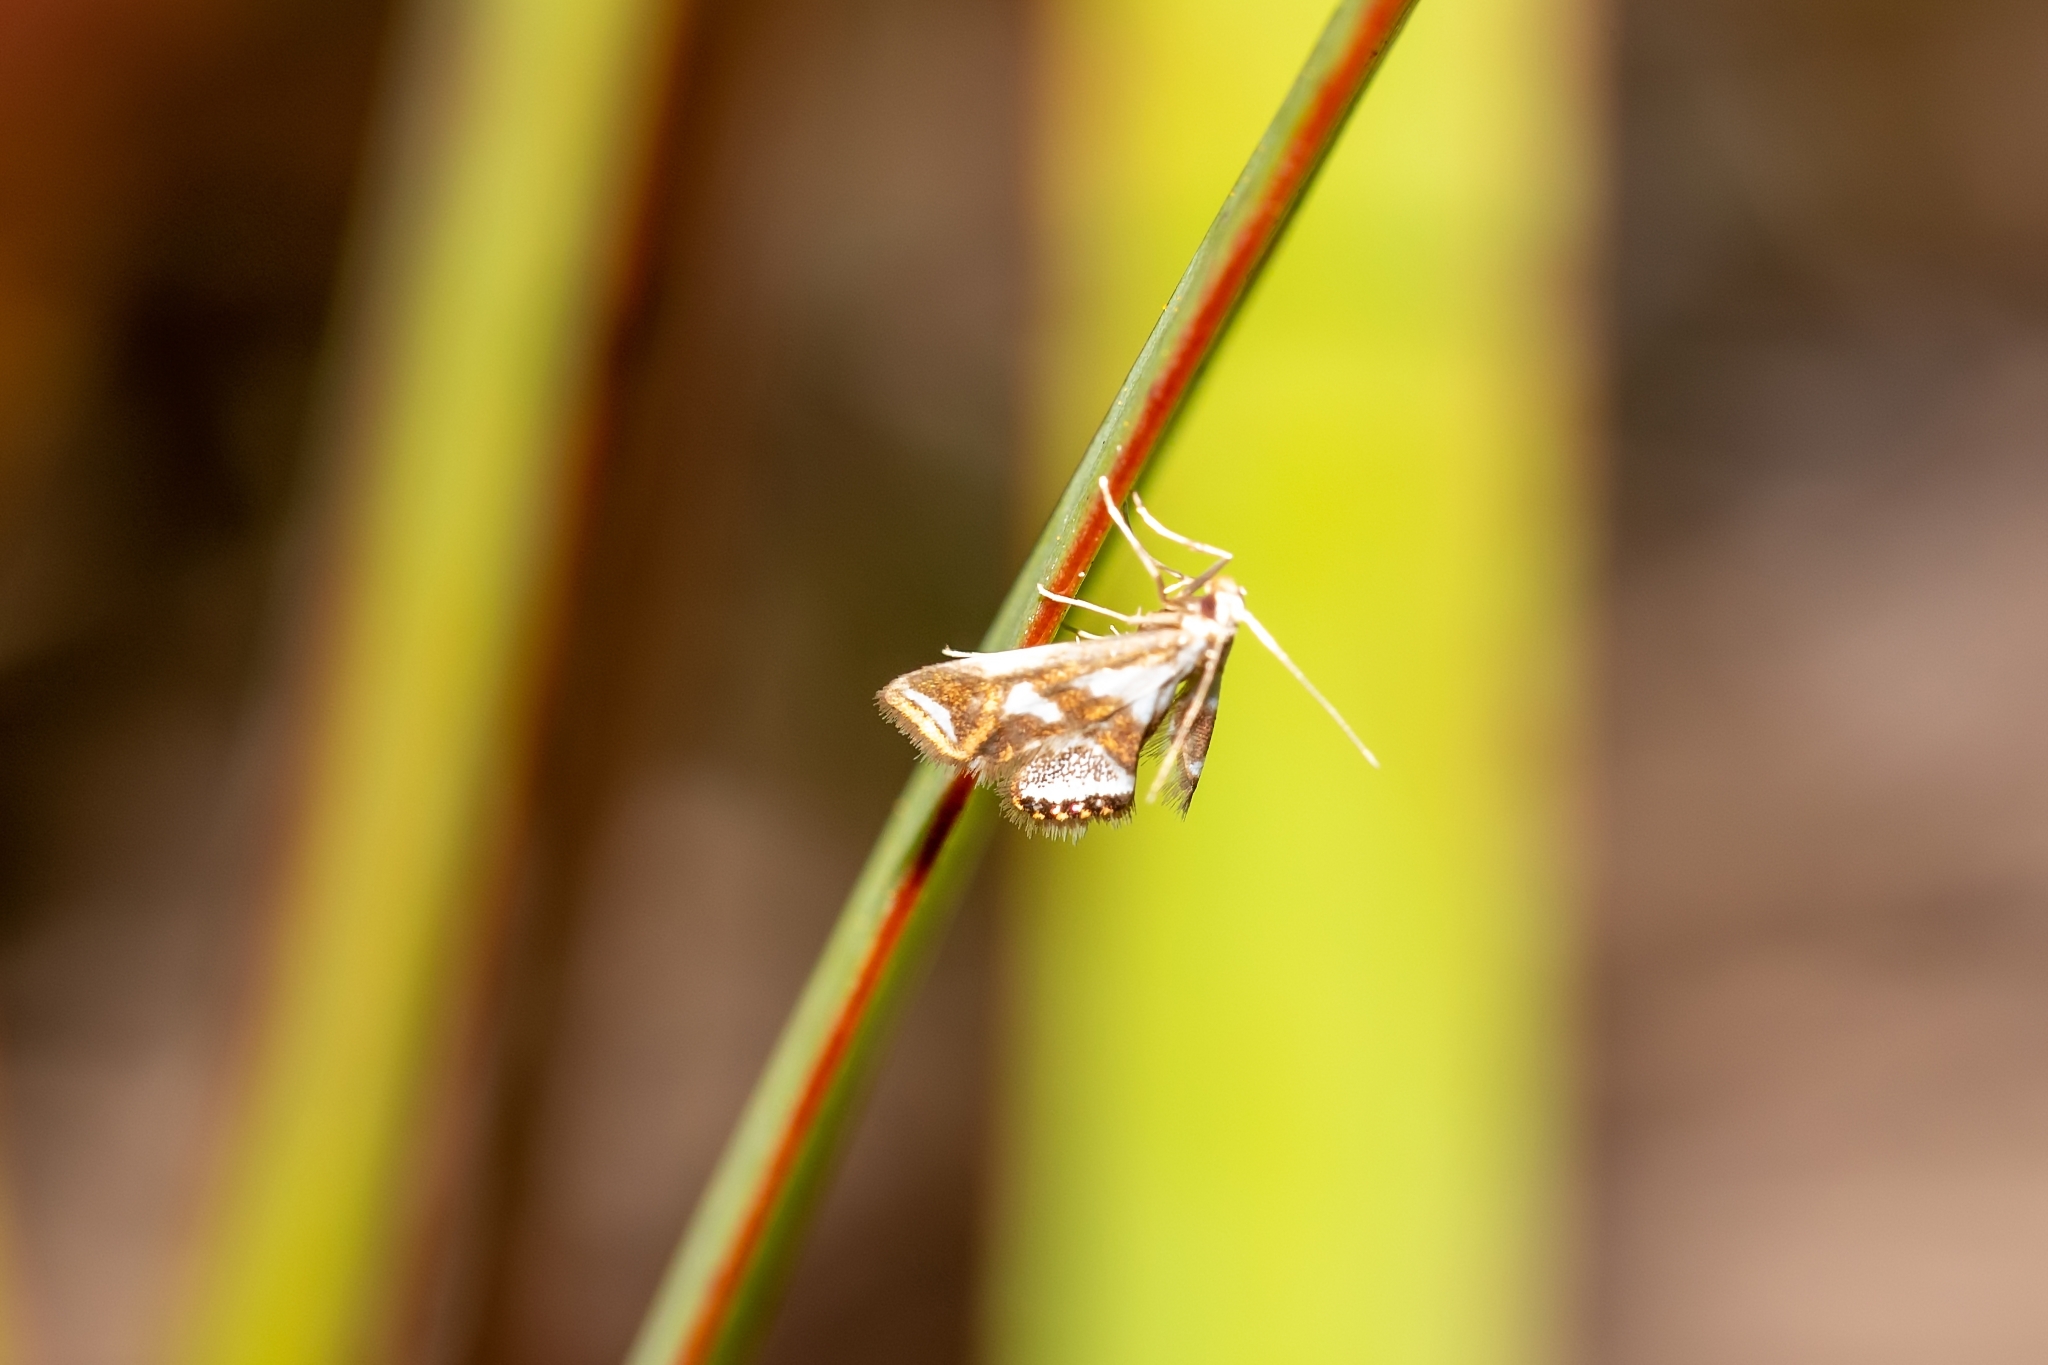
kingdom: Animalia
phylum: Arthropoda
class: Insecta
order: Lepidoptera
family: Crambidae
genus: Chrysendeton
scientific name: Chrysendeton medicinalis
